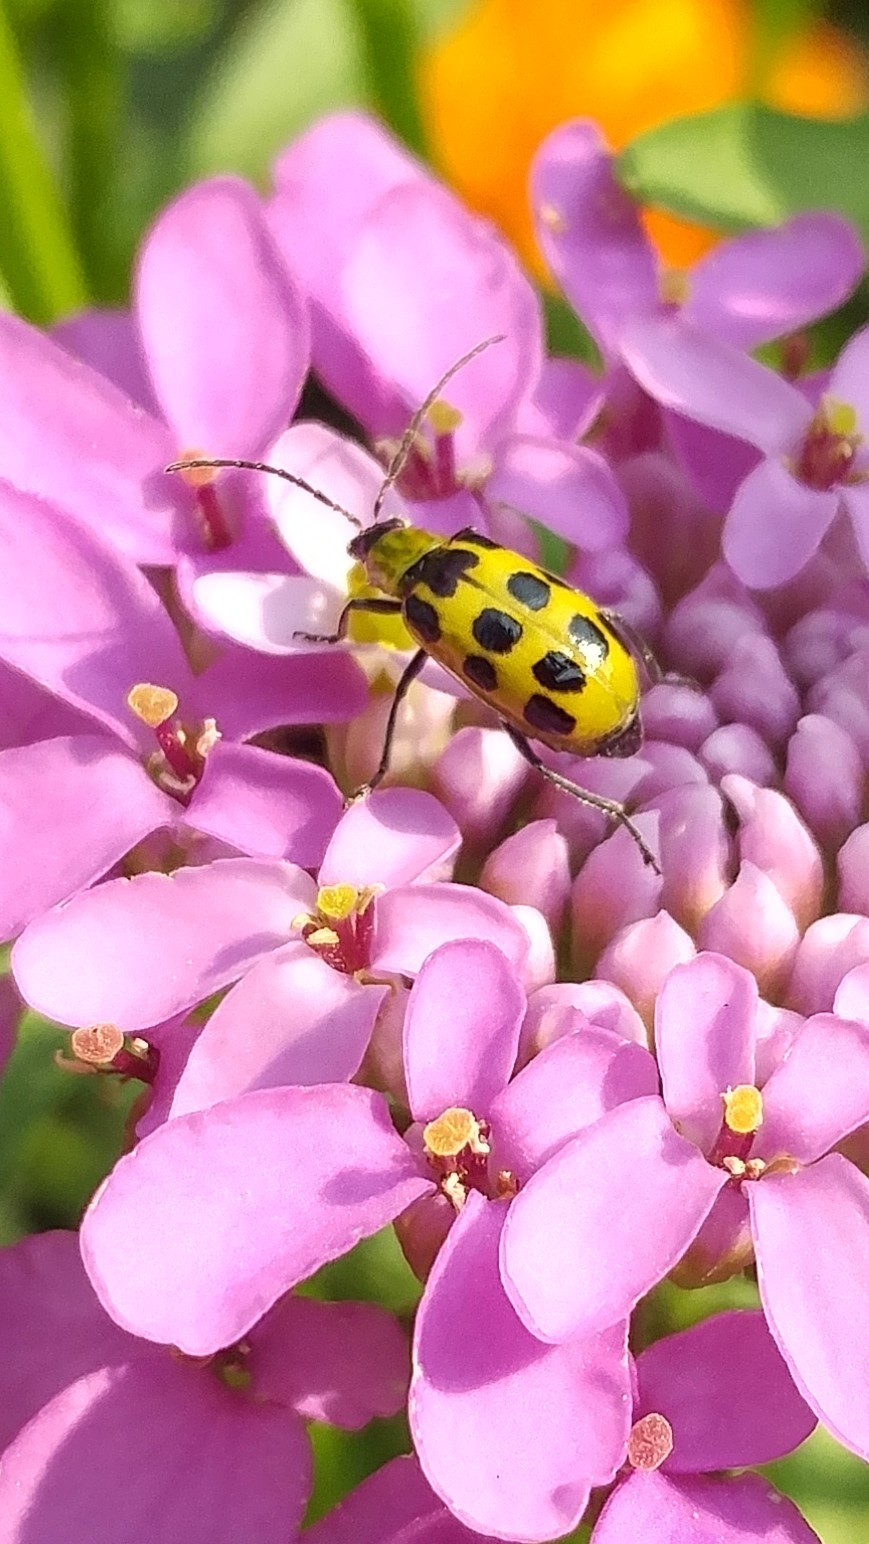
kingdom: Animalia
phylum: Arthropoda
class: Insecta
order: Coleoptera
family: Chrysomelidae
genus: Diabrotica
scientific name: Diabrotica undecimpunctata
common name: Spotted cucumber beetle
